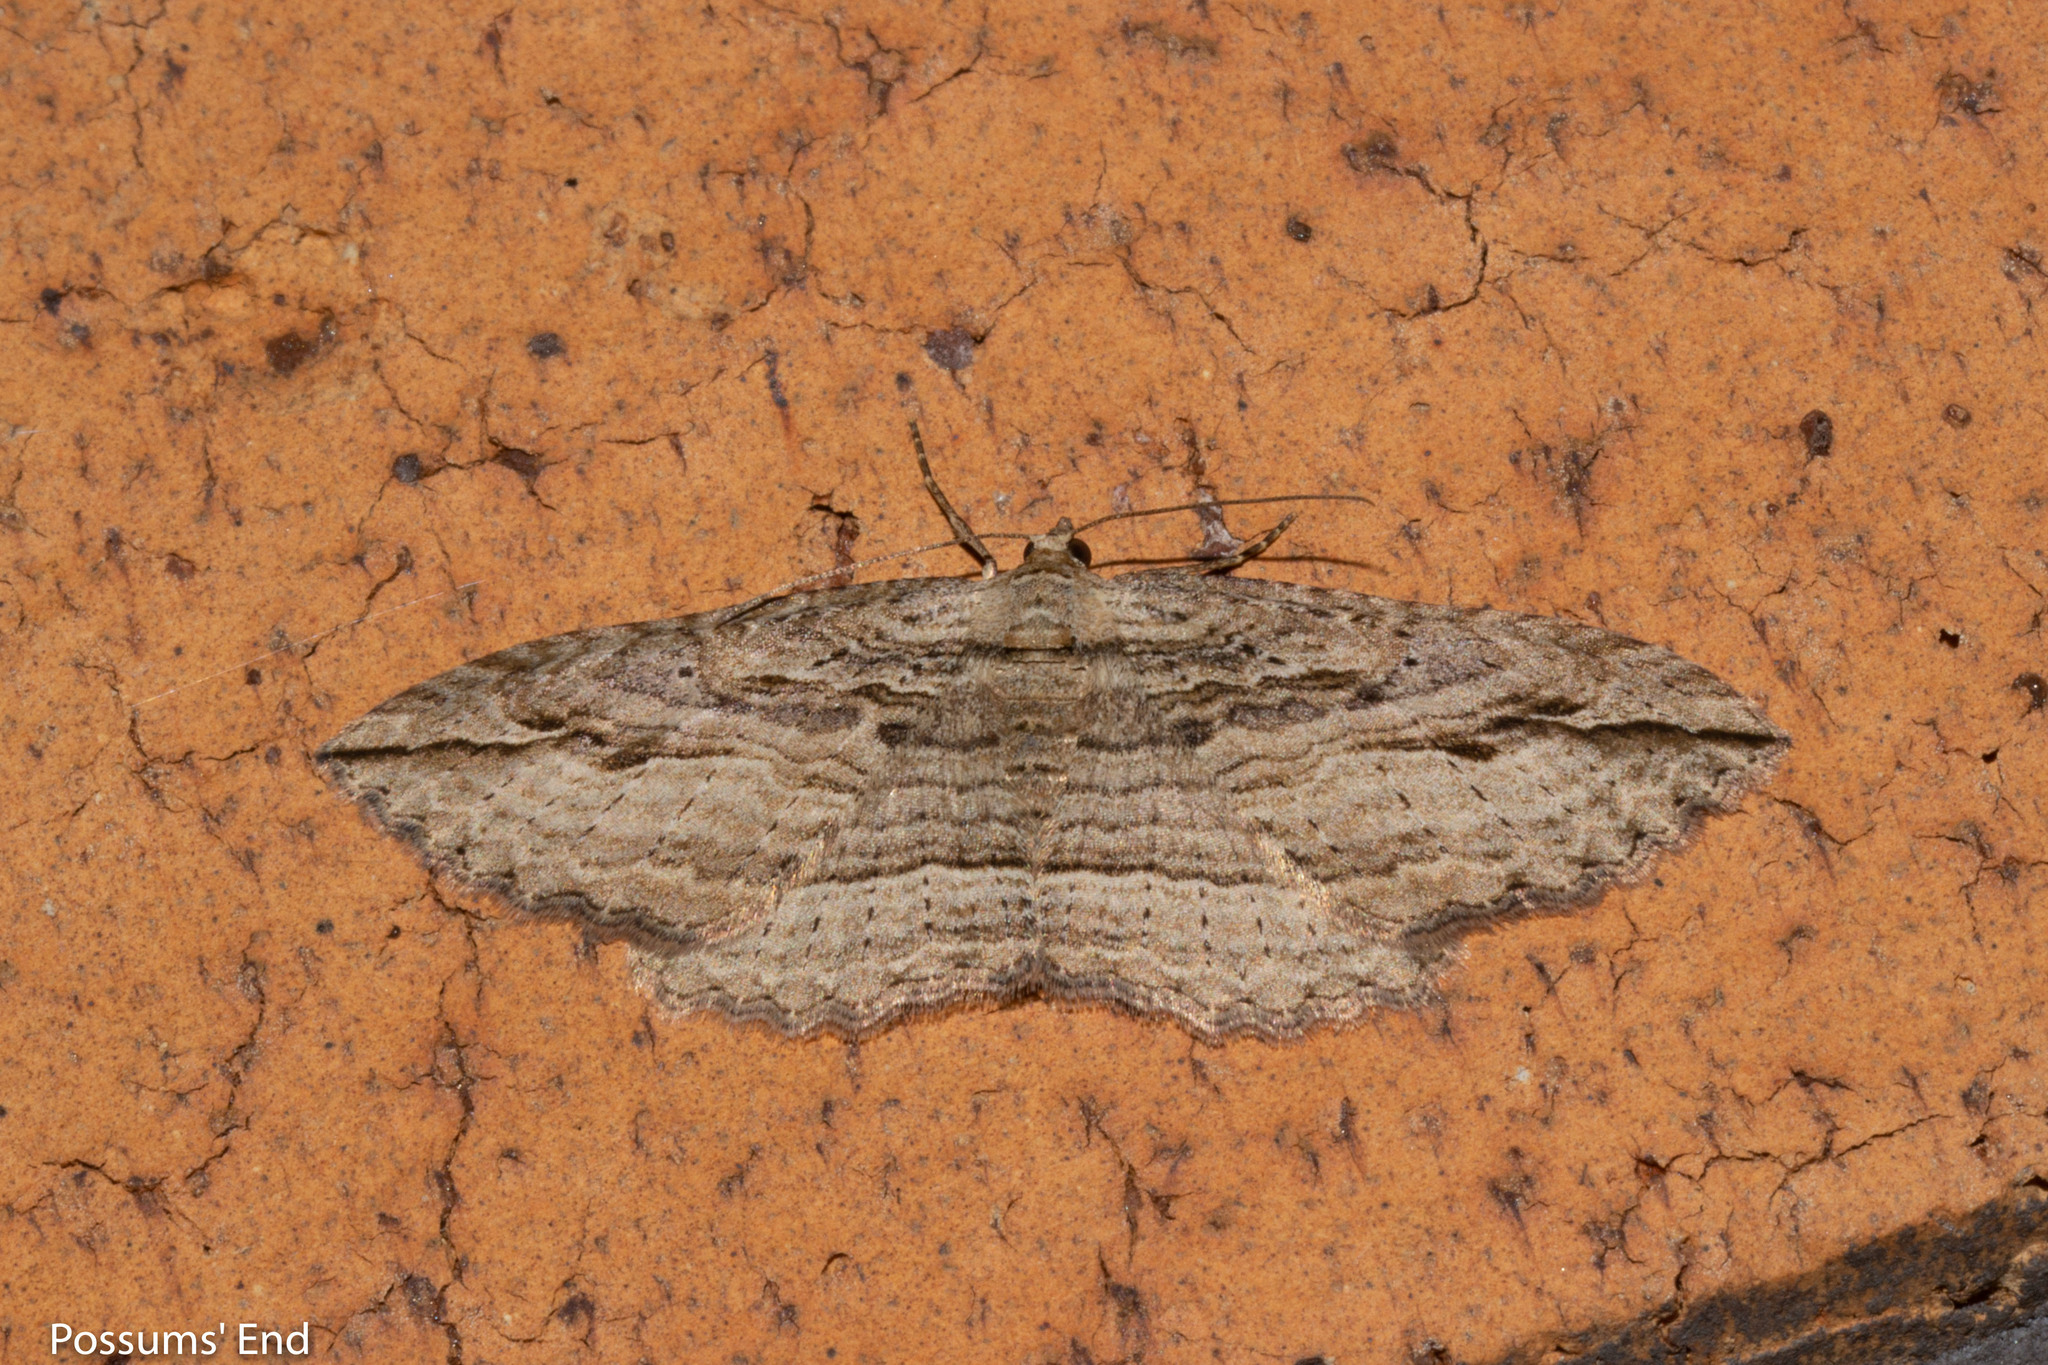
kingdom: Animalia
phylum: Arthropoda
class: Insecta
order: Lepidoptera
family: Geometridae
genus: Austrocidaria
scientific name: Austrocidaria gobiata
